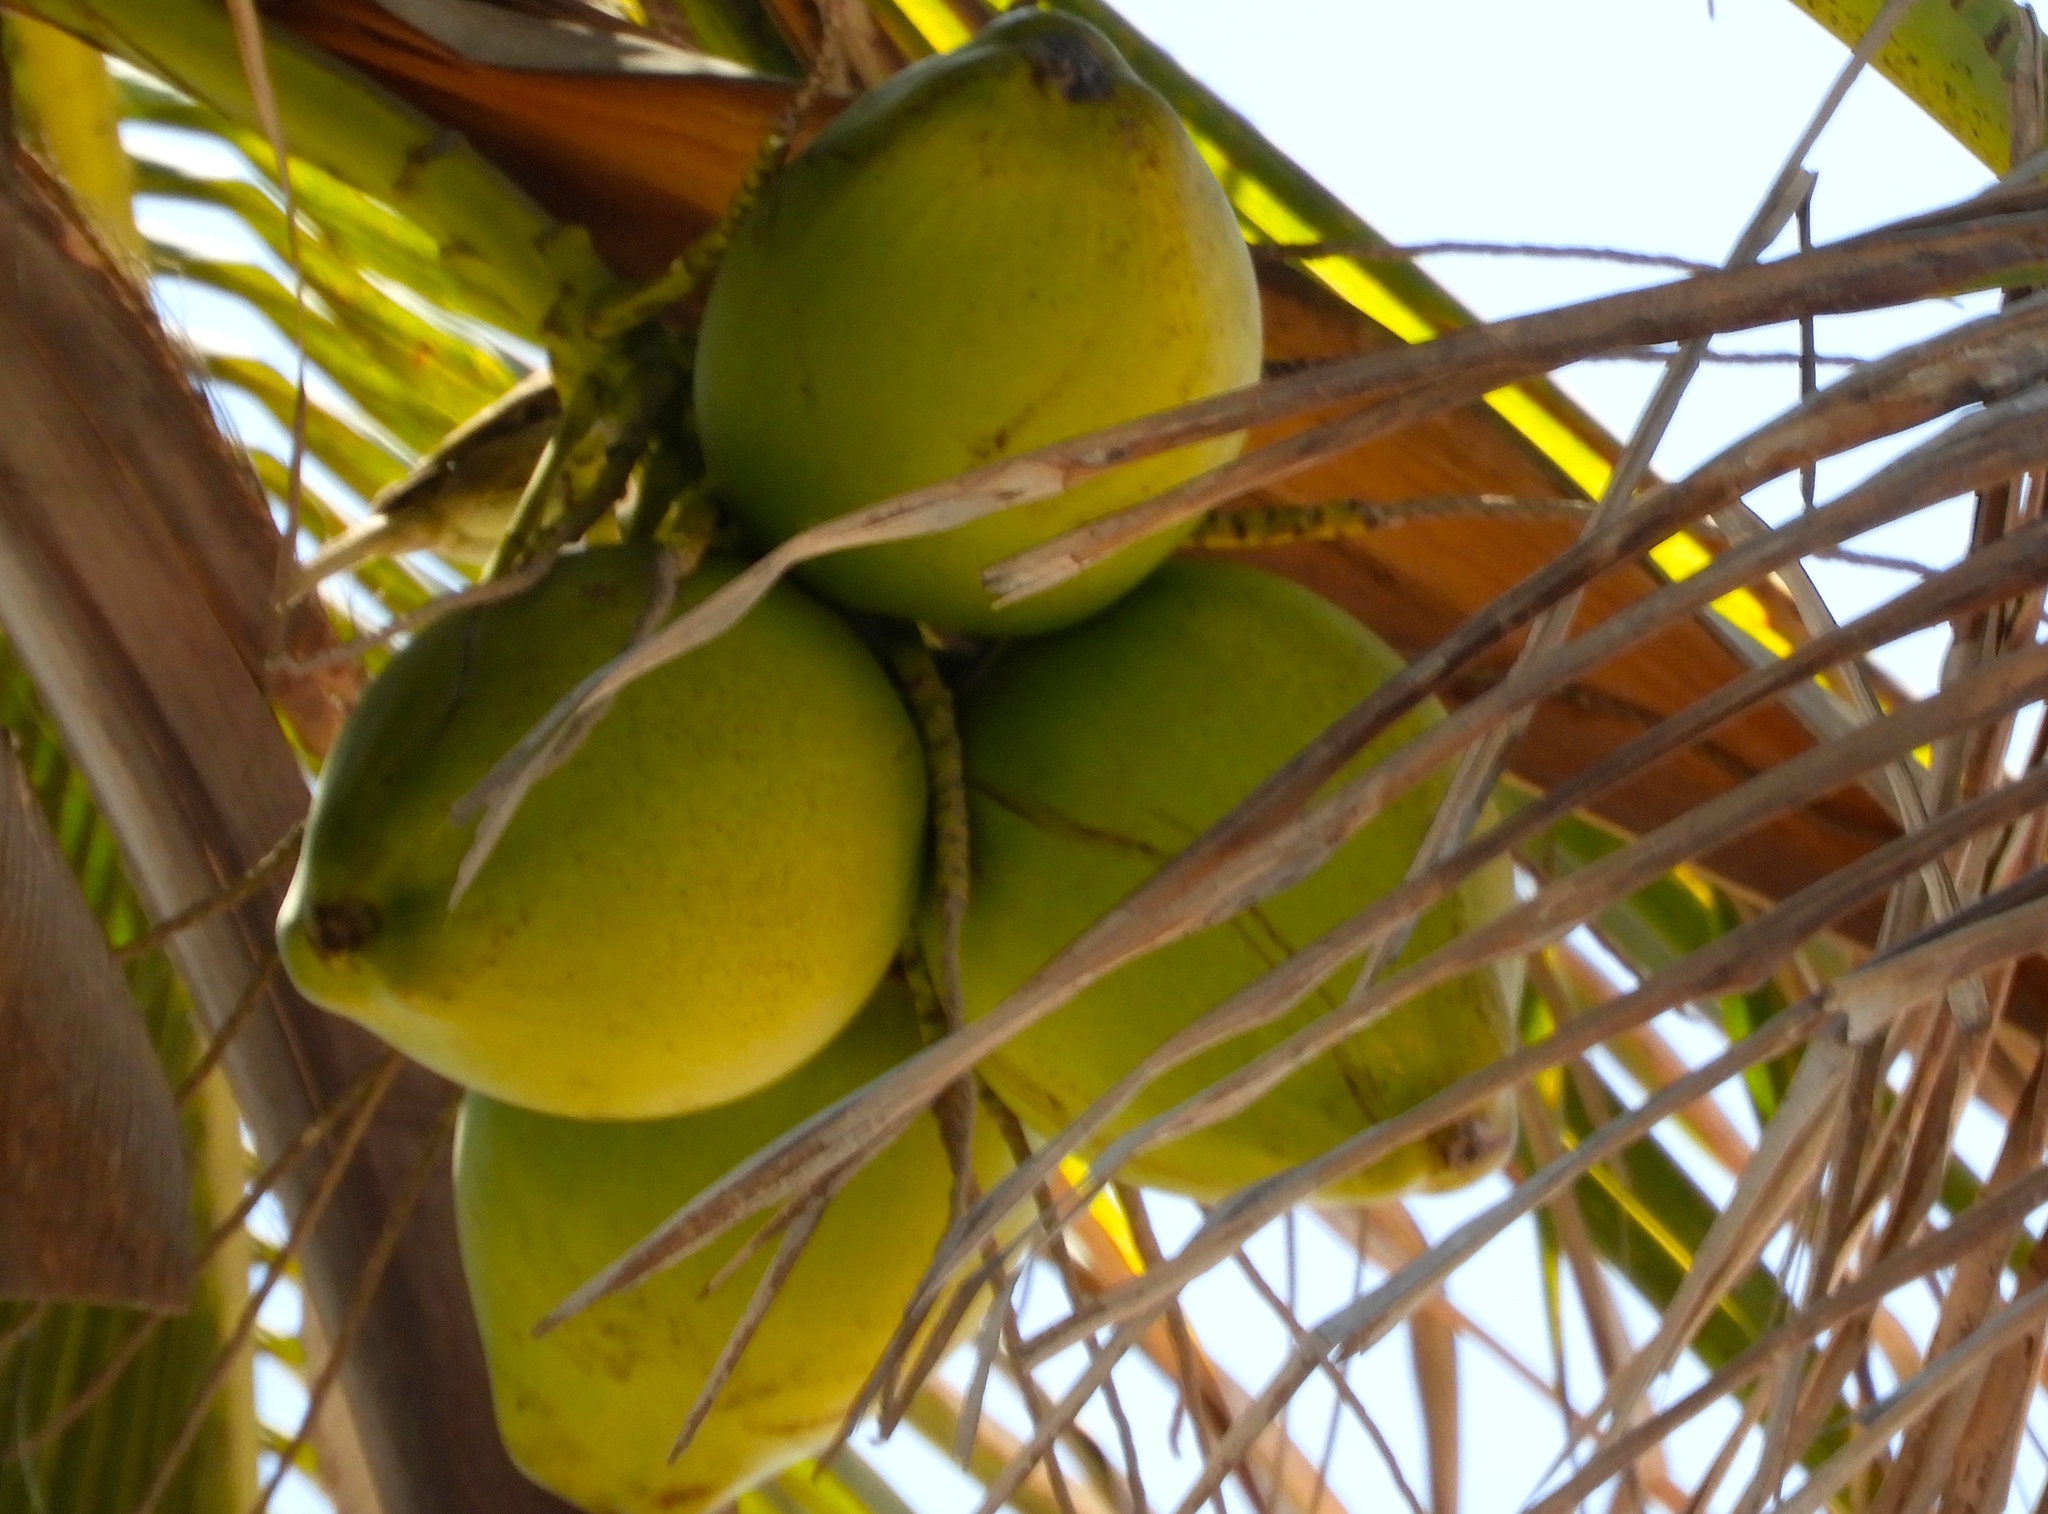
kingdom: Plantae
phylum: Tracheophyta
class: Liliopsida
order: Arecales
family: Arecaceae
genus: Cocos
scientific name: Cocos nucifera
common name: Coconut palm
